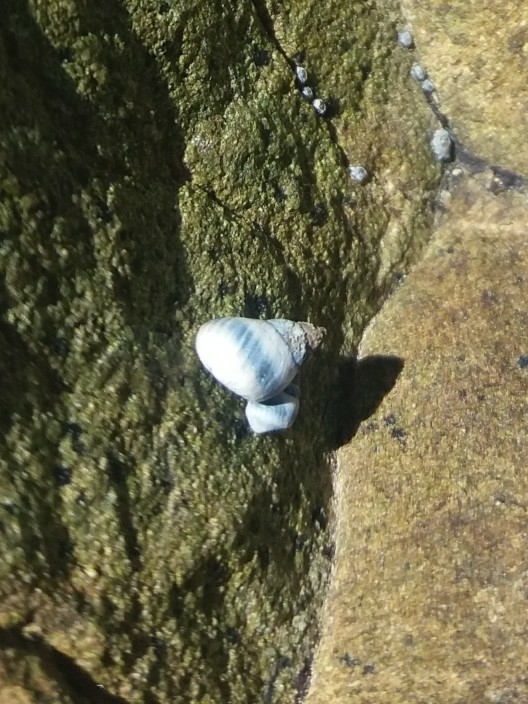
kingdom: Animalia
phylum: Mollusca
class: Gastropoda
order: Littorinimorpha
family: Littorinidae
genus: Austrolittorina
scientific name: Austrolittorina antipodum
